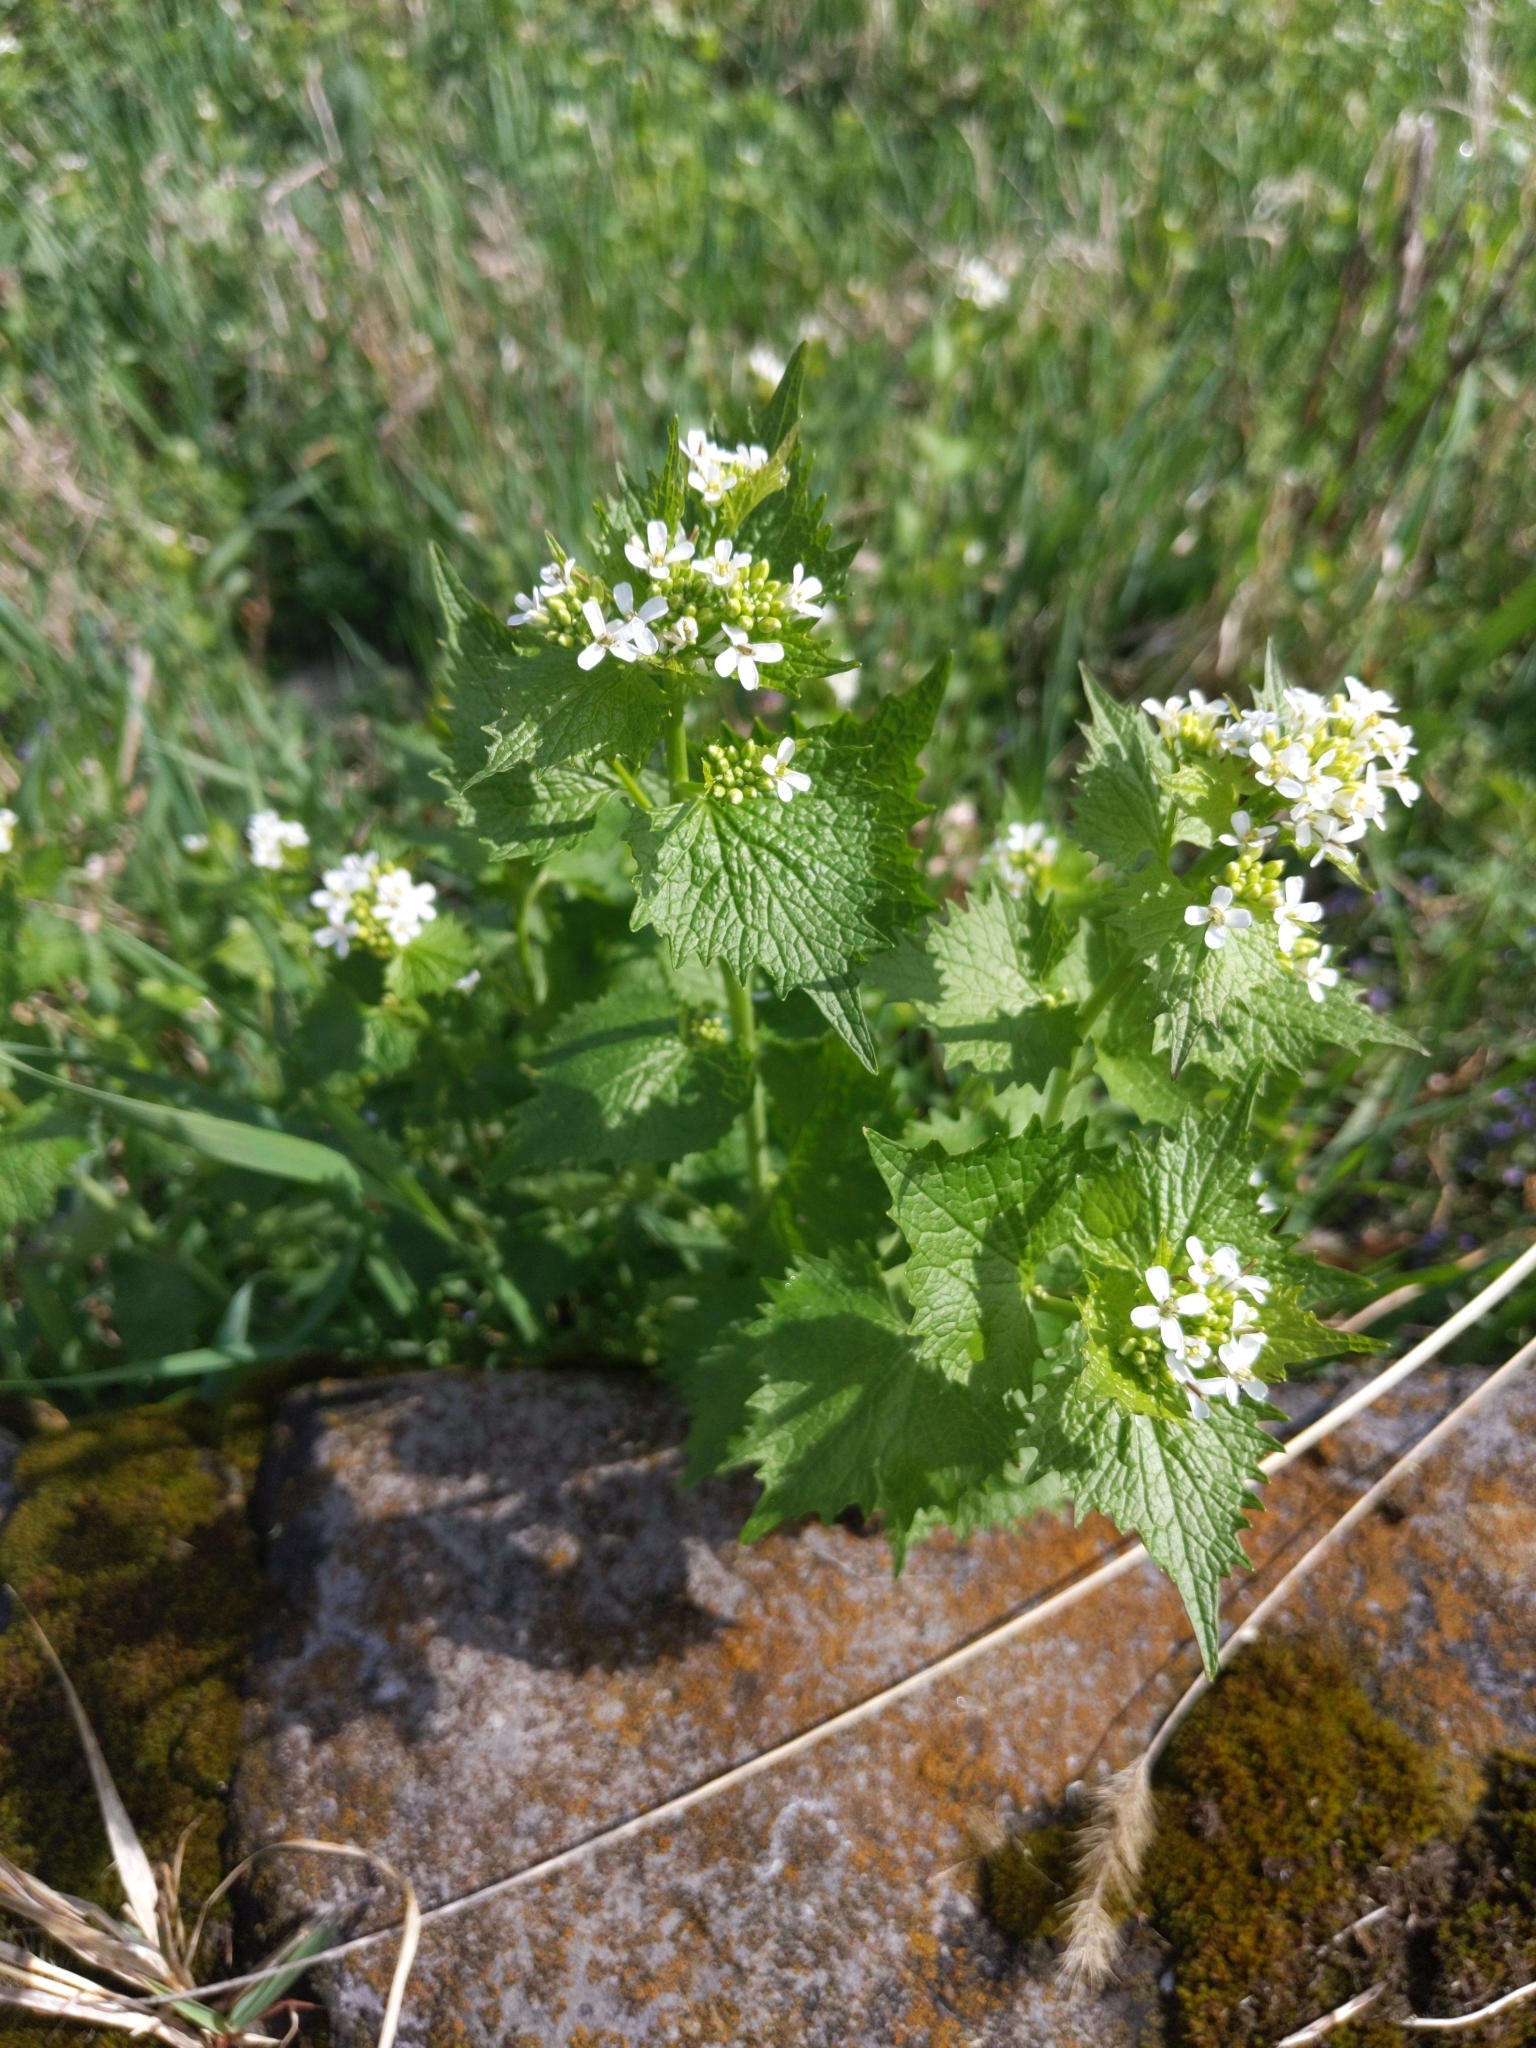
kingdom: Plantae
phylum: Tracheophyta
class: Magnoliopsida
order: Brassicales
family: Brassicaceae
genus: Alliaria
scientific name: Alliaria petiolata
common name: Garlic mustard
